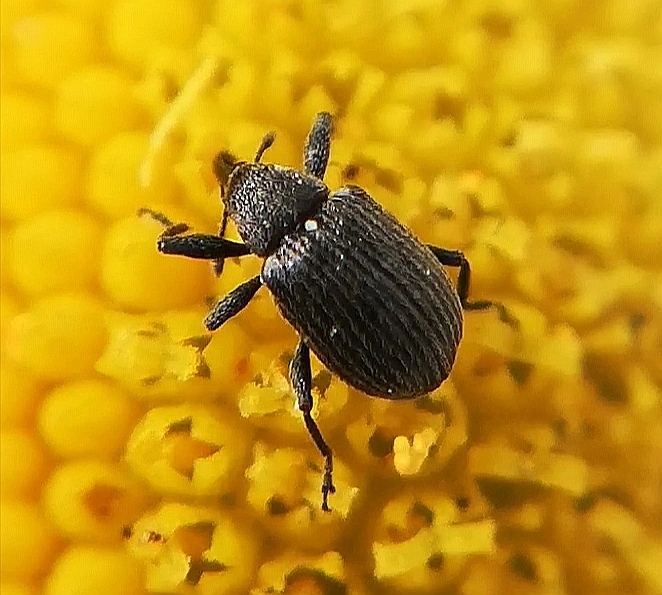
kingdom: Animalia
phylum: Arthropoda
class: Insecta
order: Coleoptera
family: Curculionidae
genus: Anthonomus
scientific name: Anthonomus rubi
